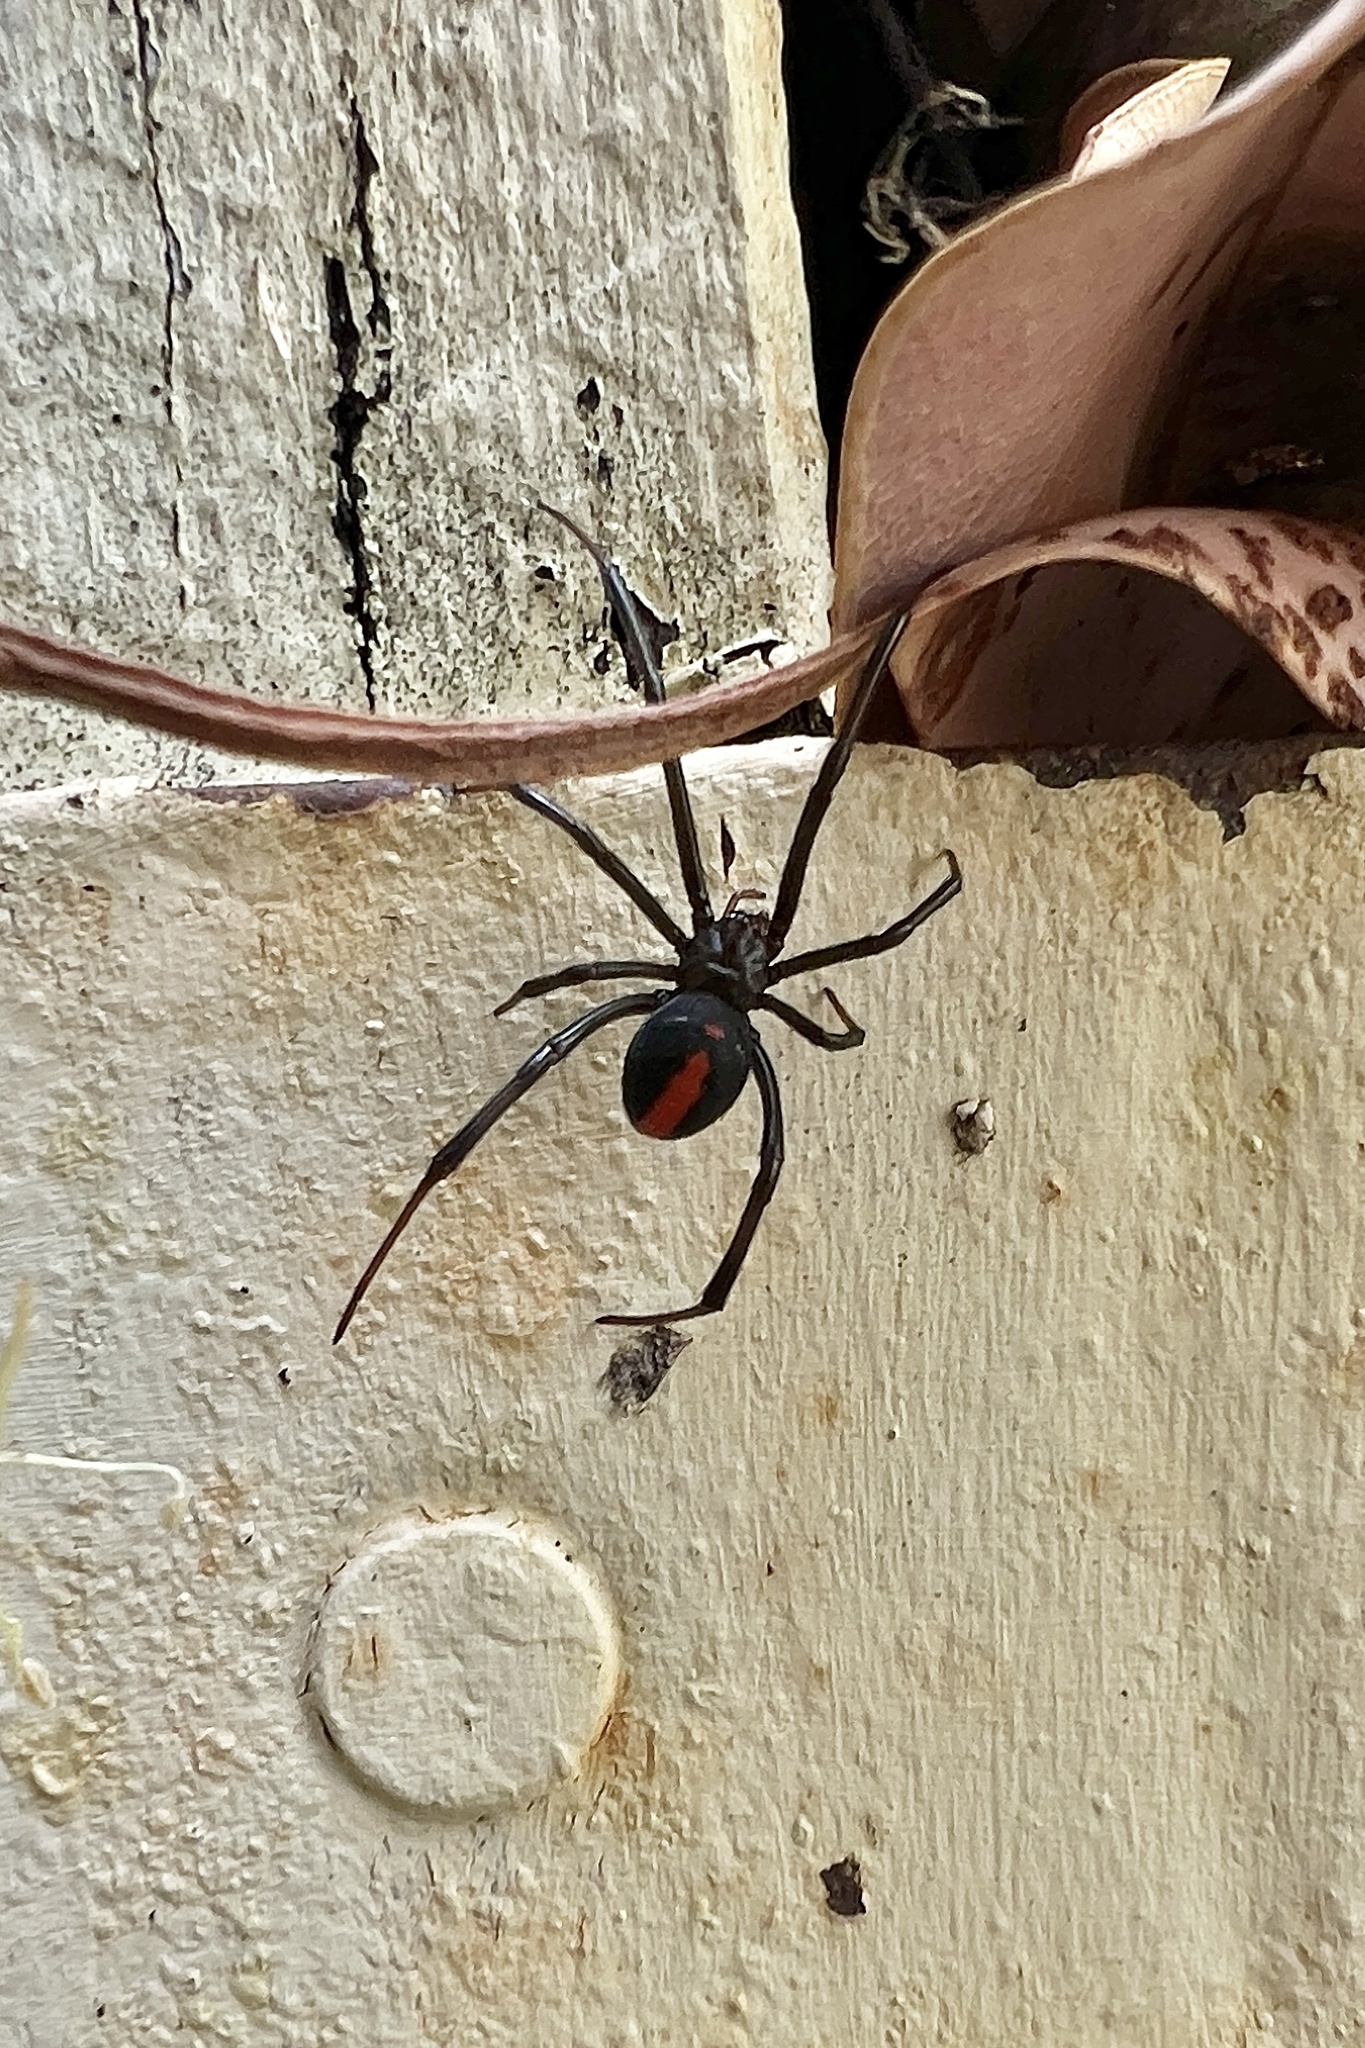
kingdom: Animalia
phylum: Arthropoda
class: Arachnida
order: Araneae
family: Theridiidae
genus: Latrodectus
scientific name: Latrodectus hasselti
